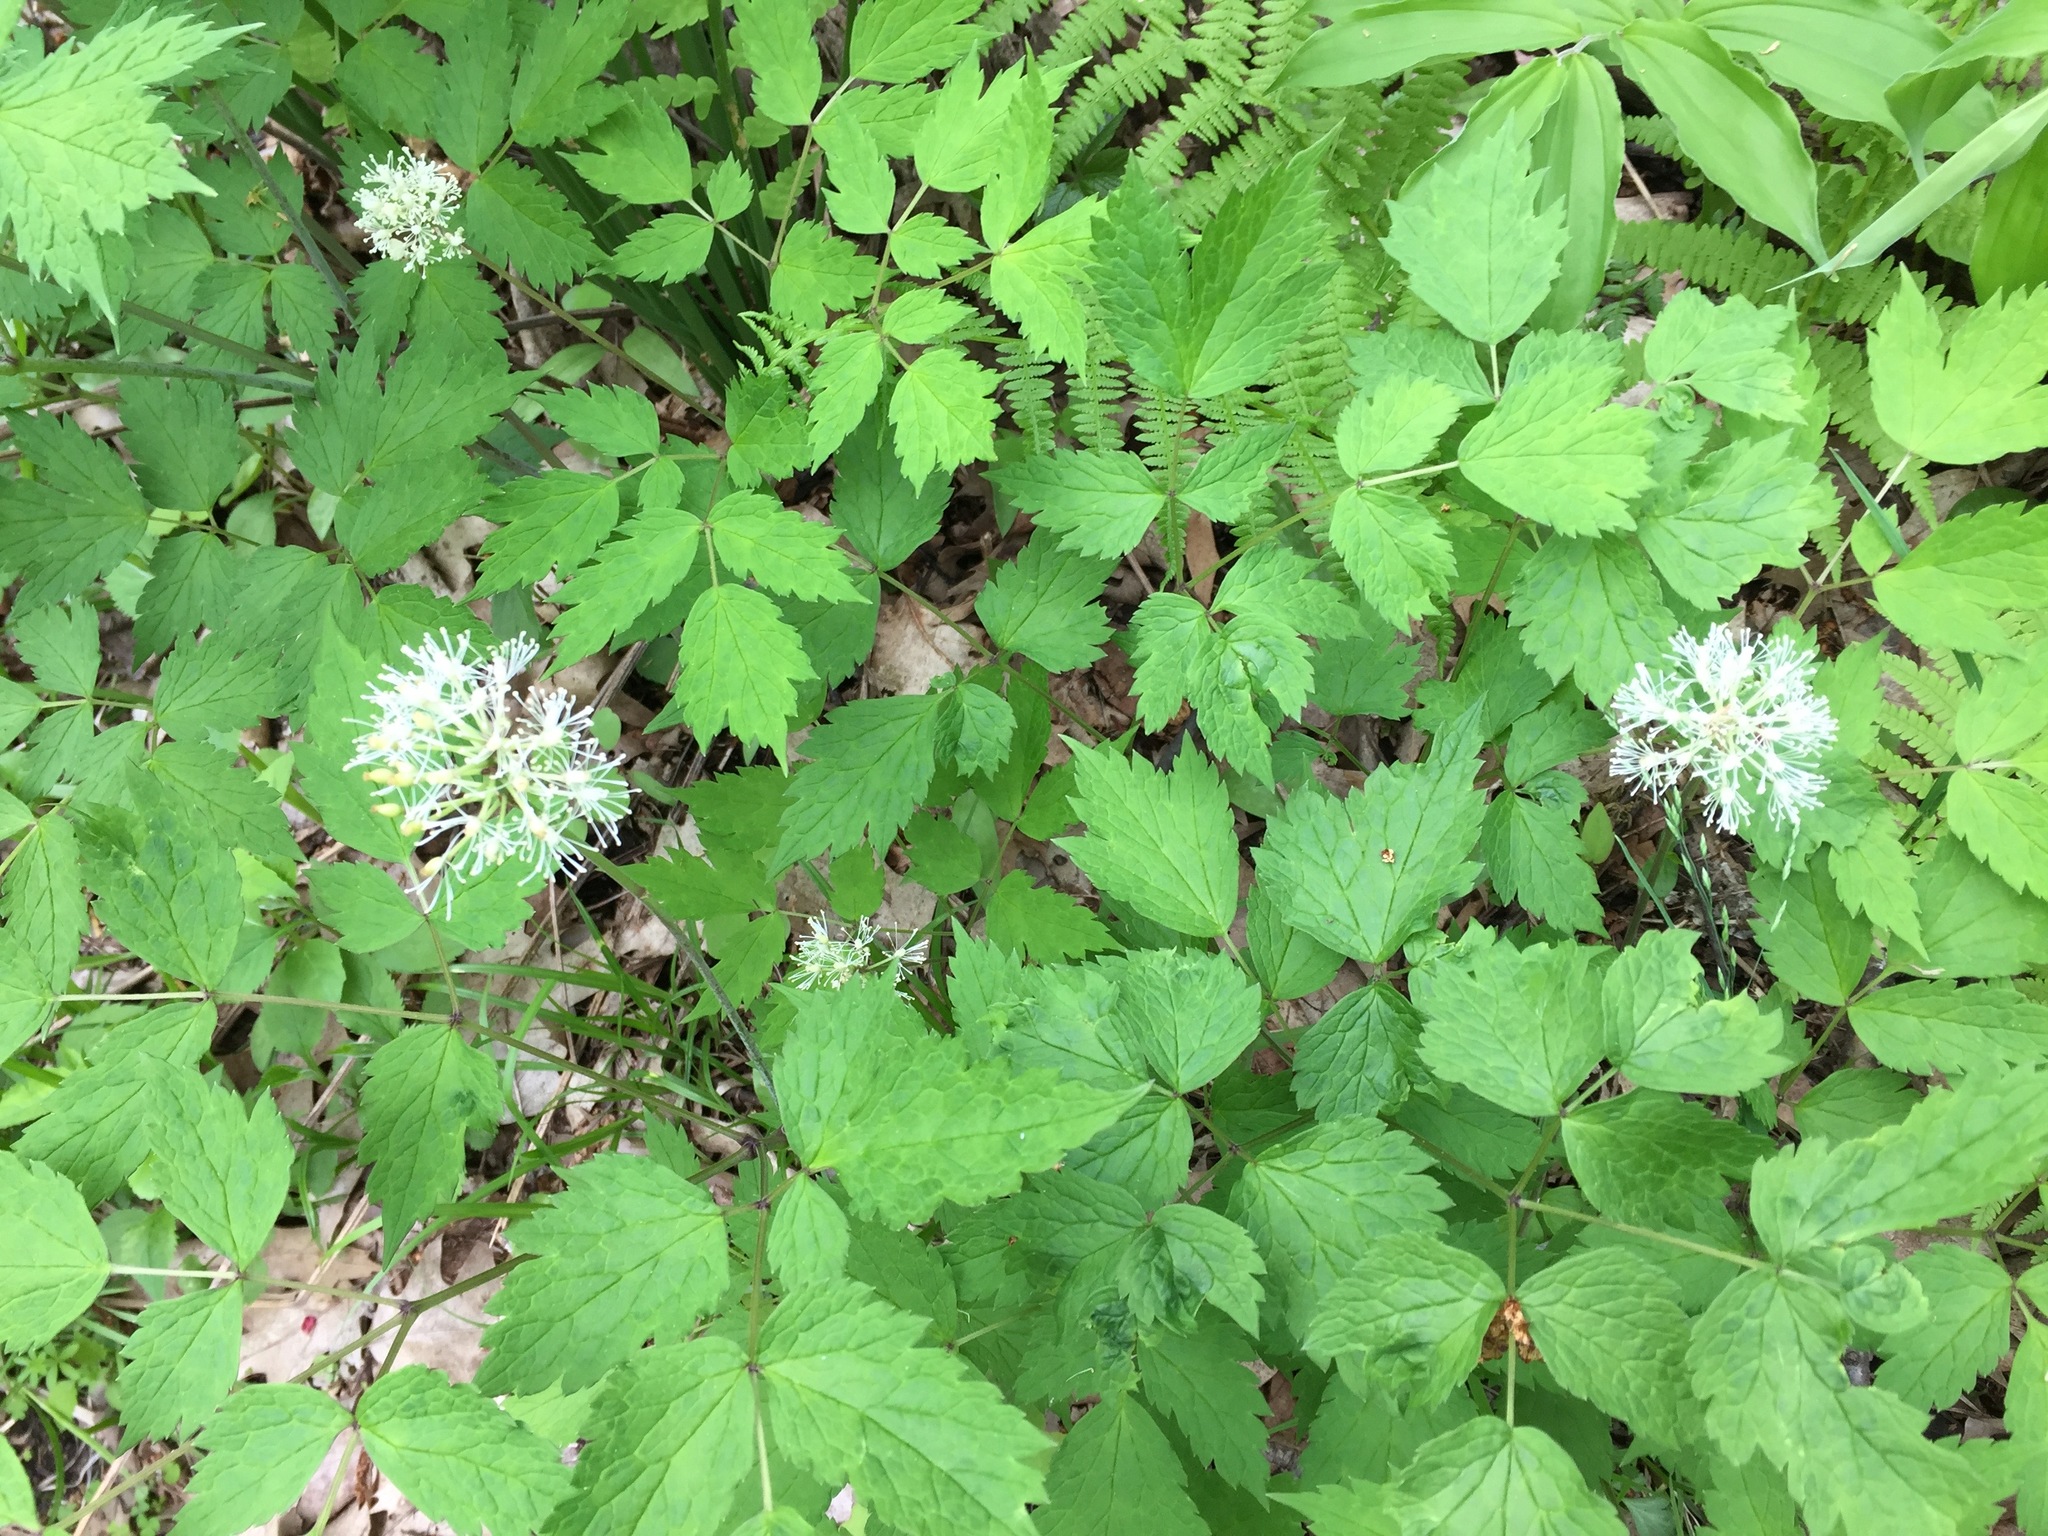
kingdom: Plantae
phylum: Tracheophyta
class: Magnoliopsida
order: Ranunculales
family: Ranunculaceae
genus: Actaea
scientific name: Actaea rubra
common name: Red baneberry
